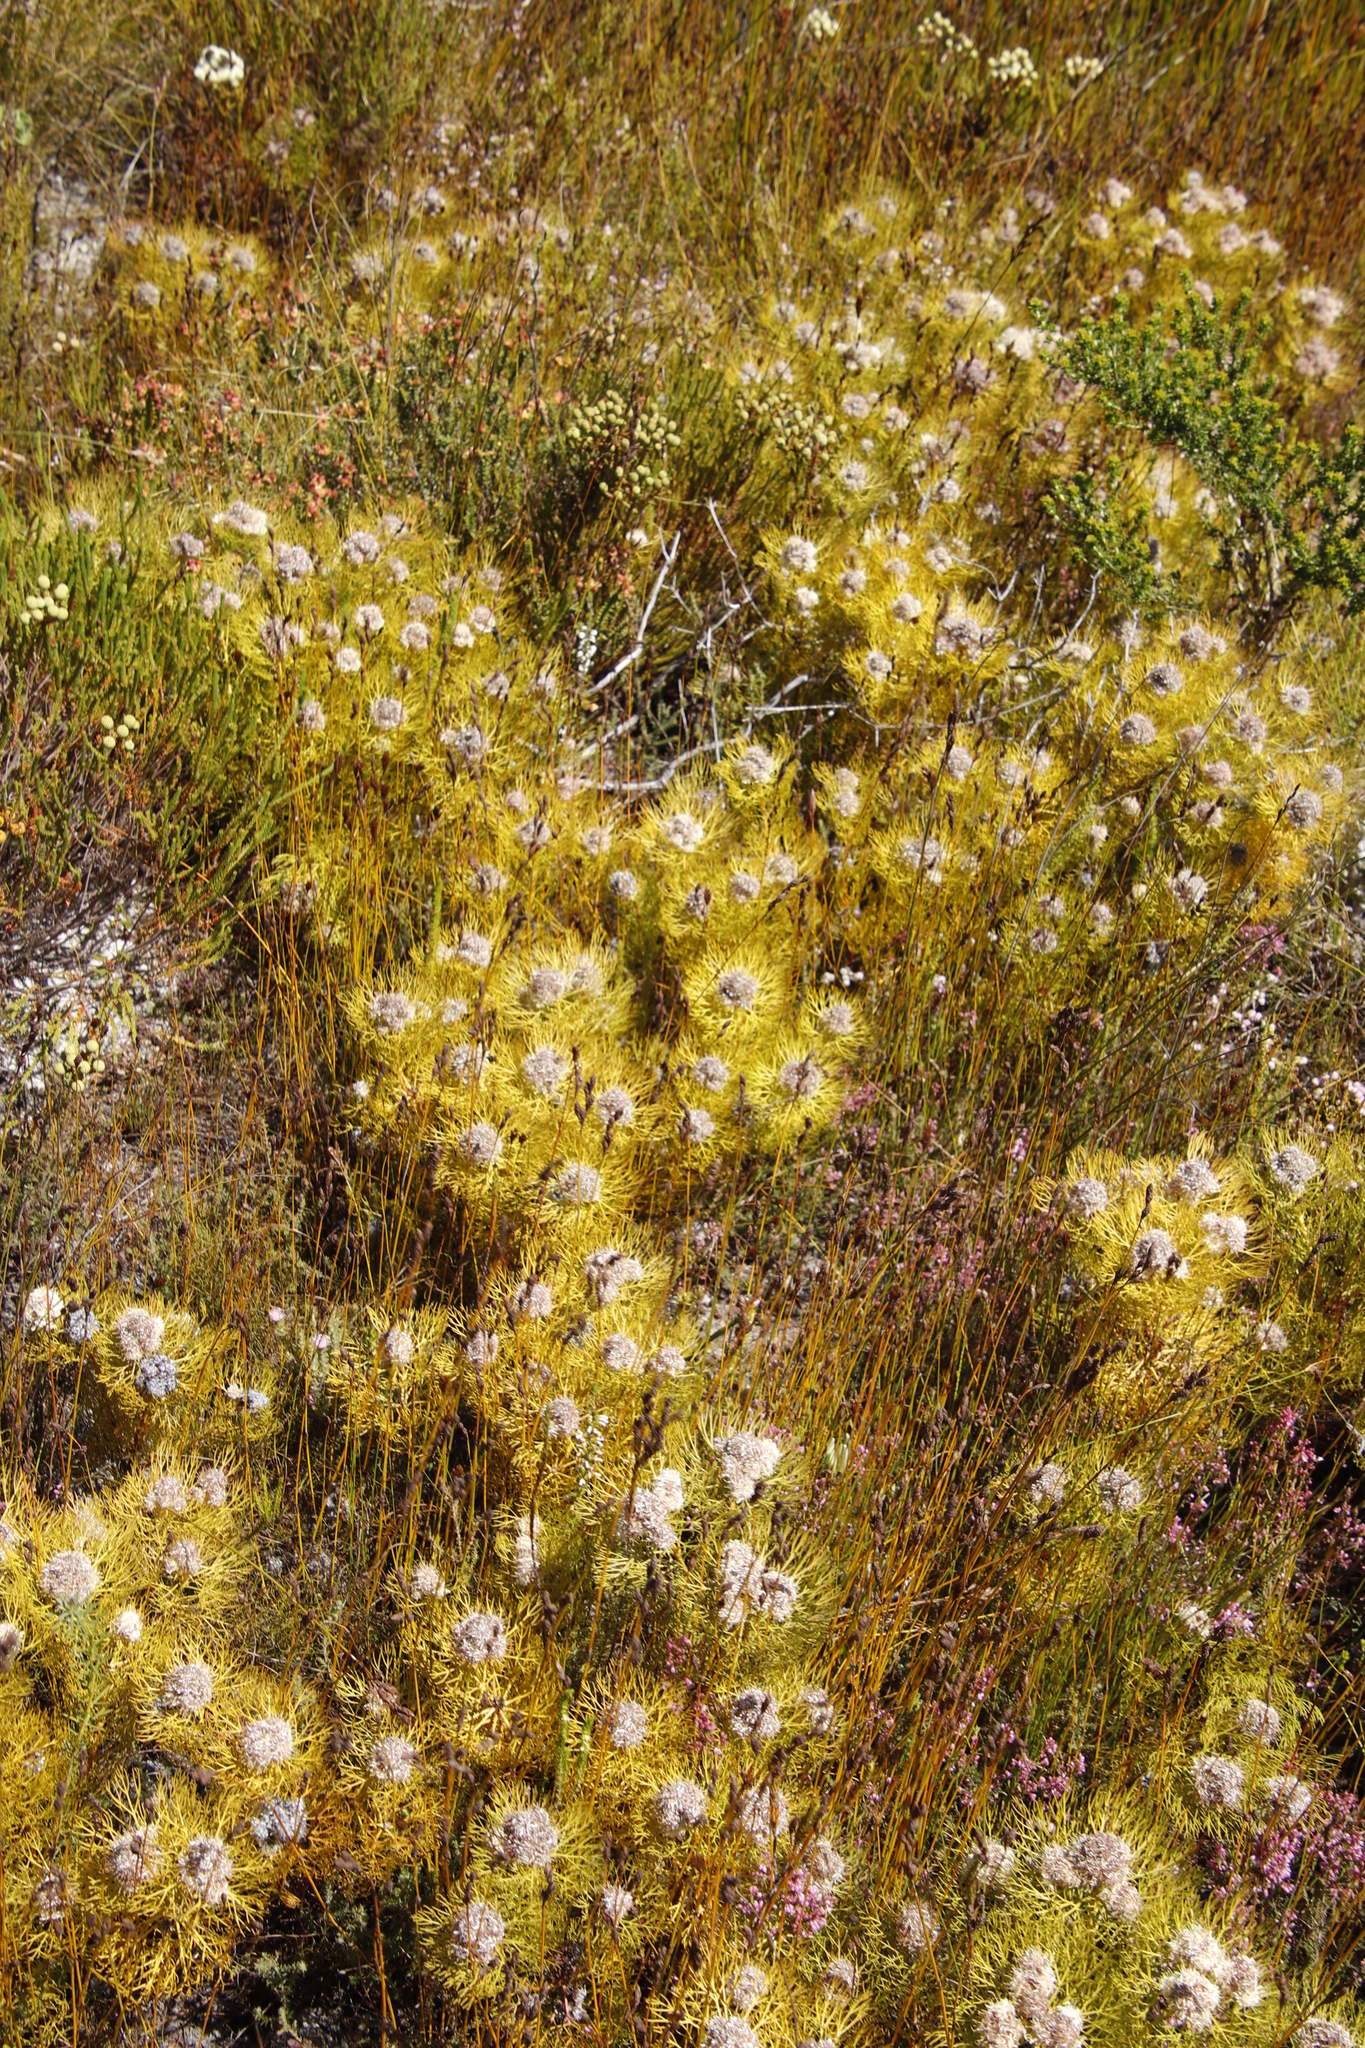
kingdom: Plantae
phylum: Tracheophyta
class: Magnoliopsida
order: Proteales
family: Proteaceae
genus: Serruria
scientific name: Serruria glomerata
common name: Cluster spiderhead
